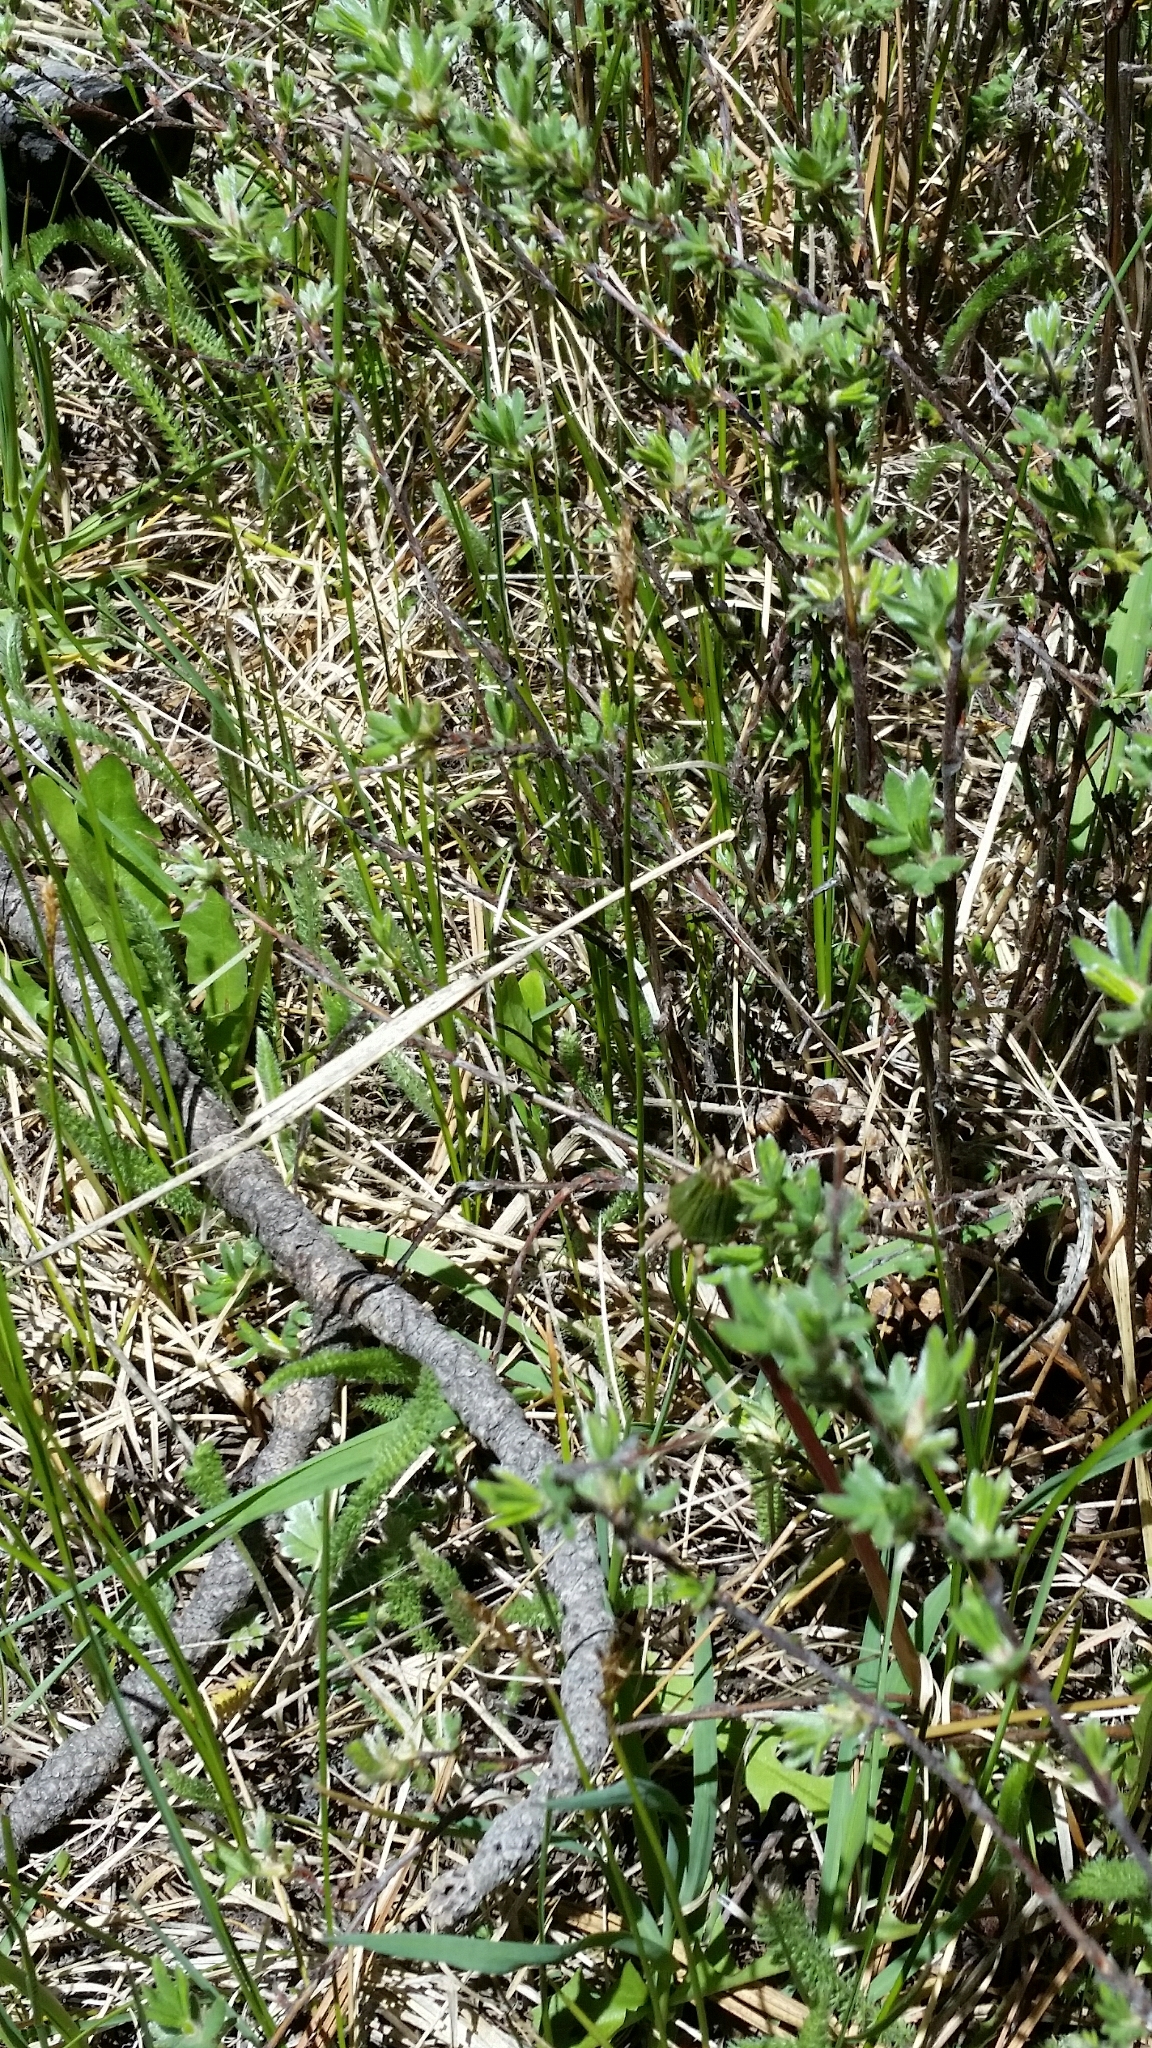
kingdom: Plantae
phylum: Tracheophyta
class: Magnoliopsida
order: Rosales
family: Rosaceae
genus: Dasiphora
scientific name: Dasiphora fruticosa
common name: Shrubby cinquefoil
